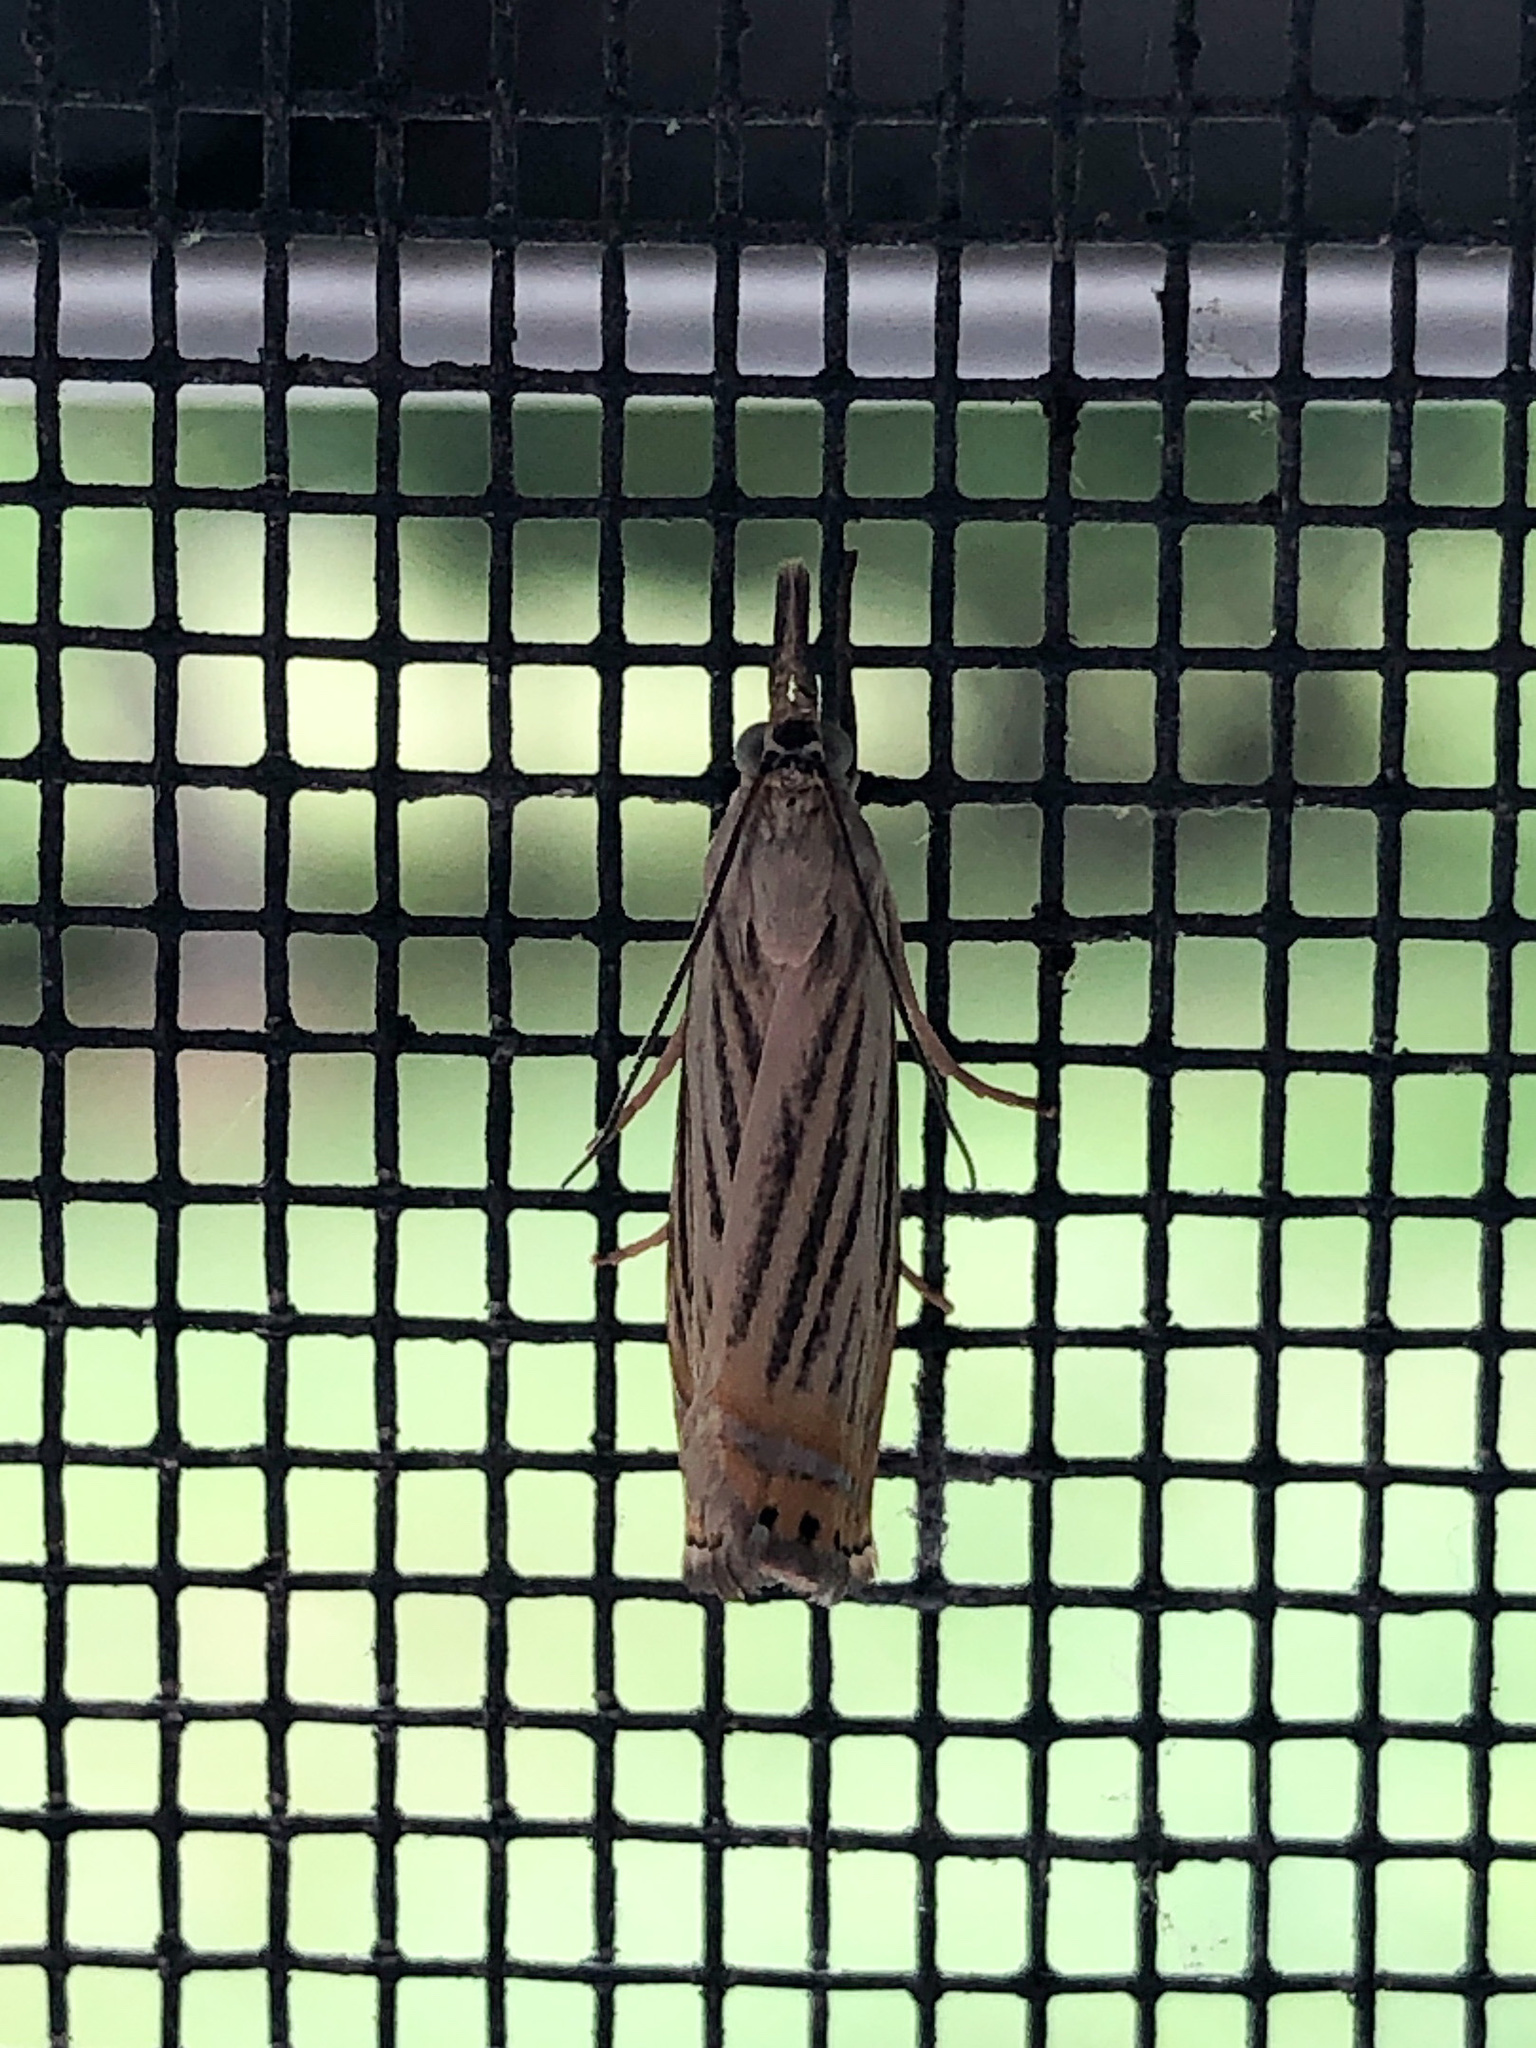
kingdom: Animalia
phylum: Arthropoda
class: Insecta
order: Lepidoptera
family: Crambidae
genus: Chrysoteuchia
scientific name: Chrysoteuchia topiarius
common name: Topiary grass-veneer
